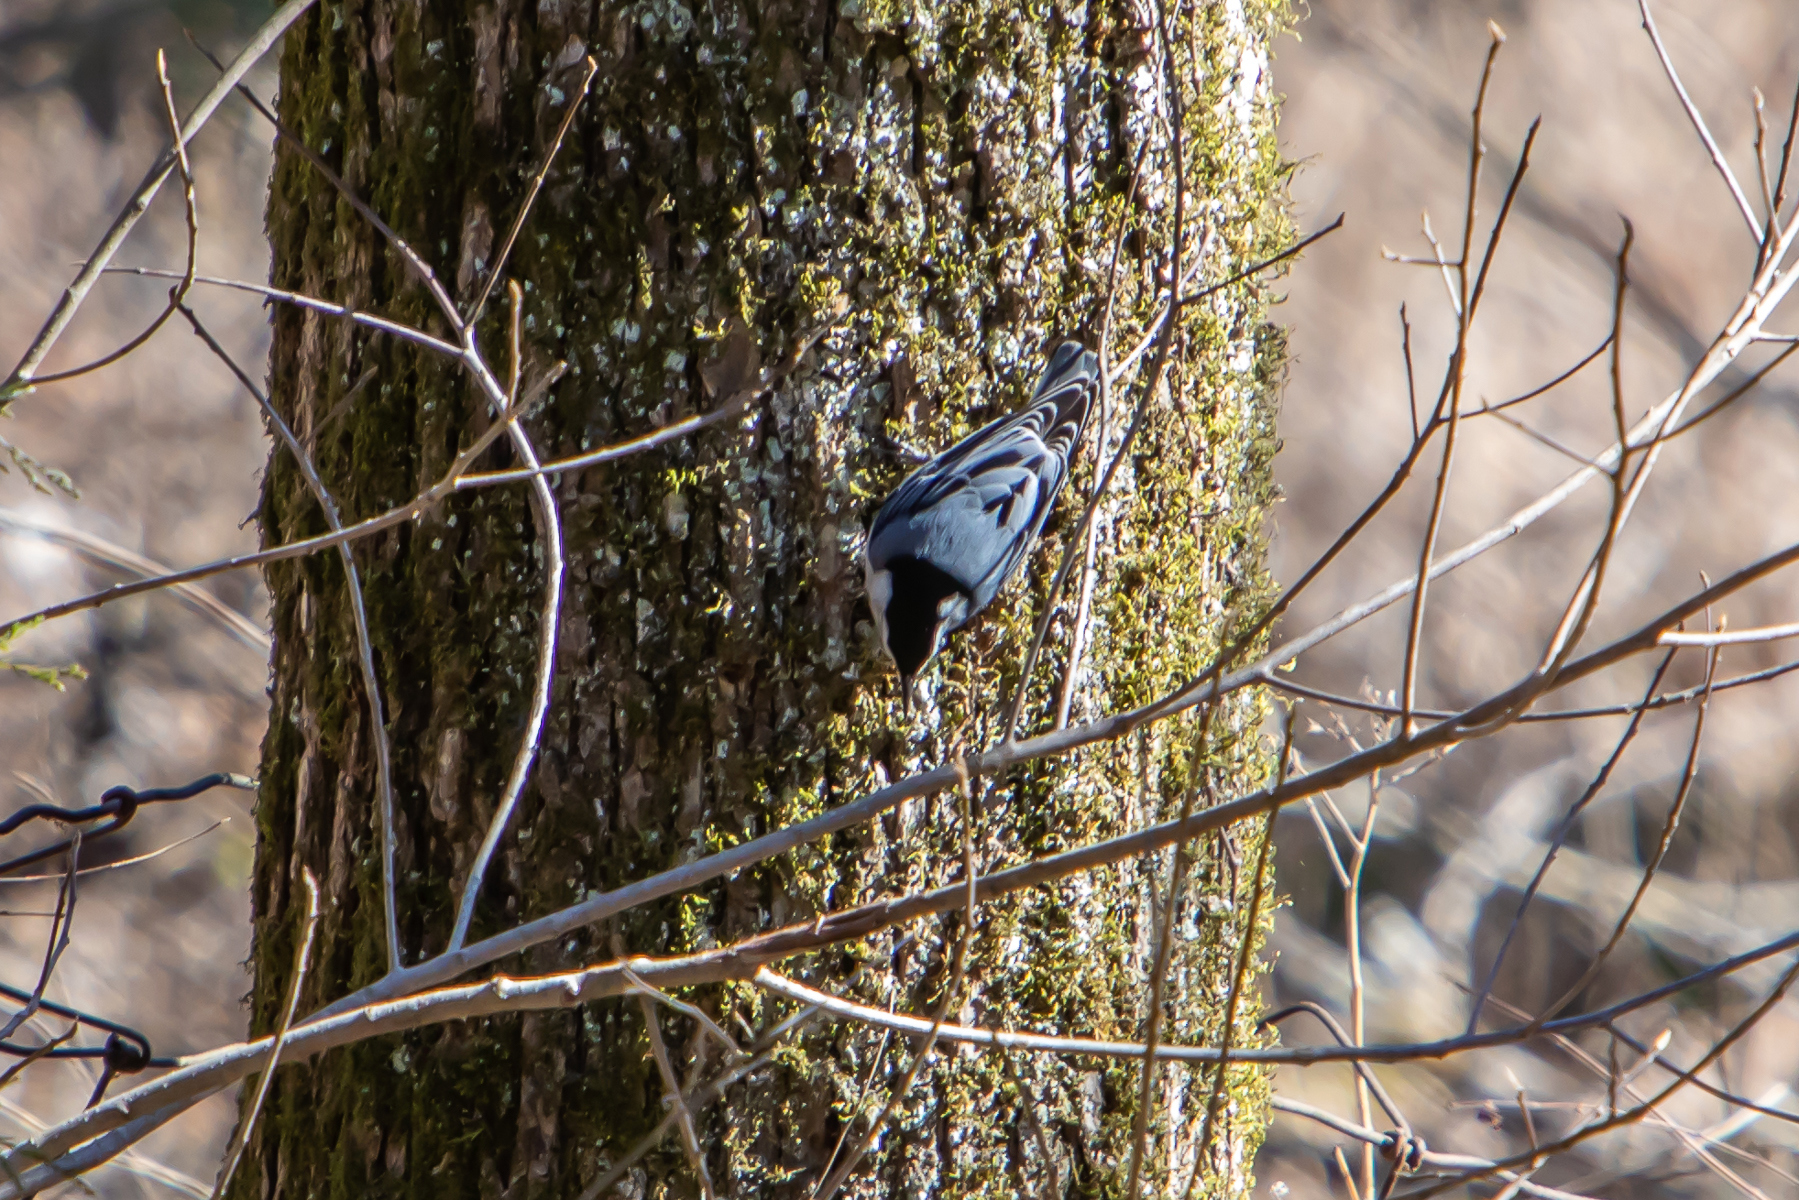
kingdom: Animalia
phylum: Chordata
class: Aves
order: Passeriformes
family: Sittidae
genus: Sitta
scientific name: Sitta carolinensis
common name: White-breasted nuthatch
